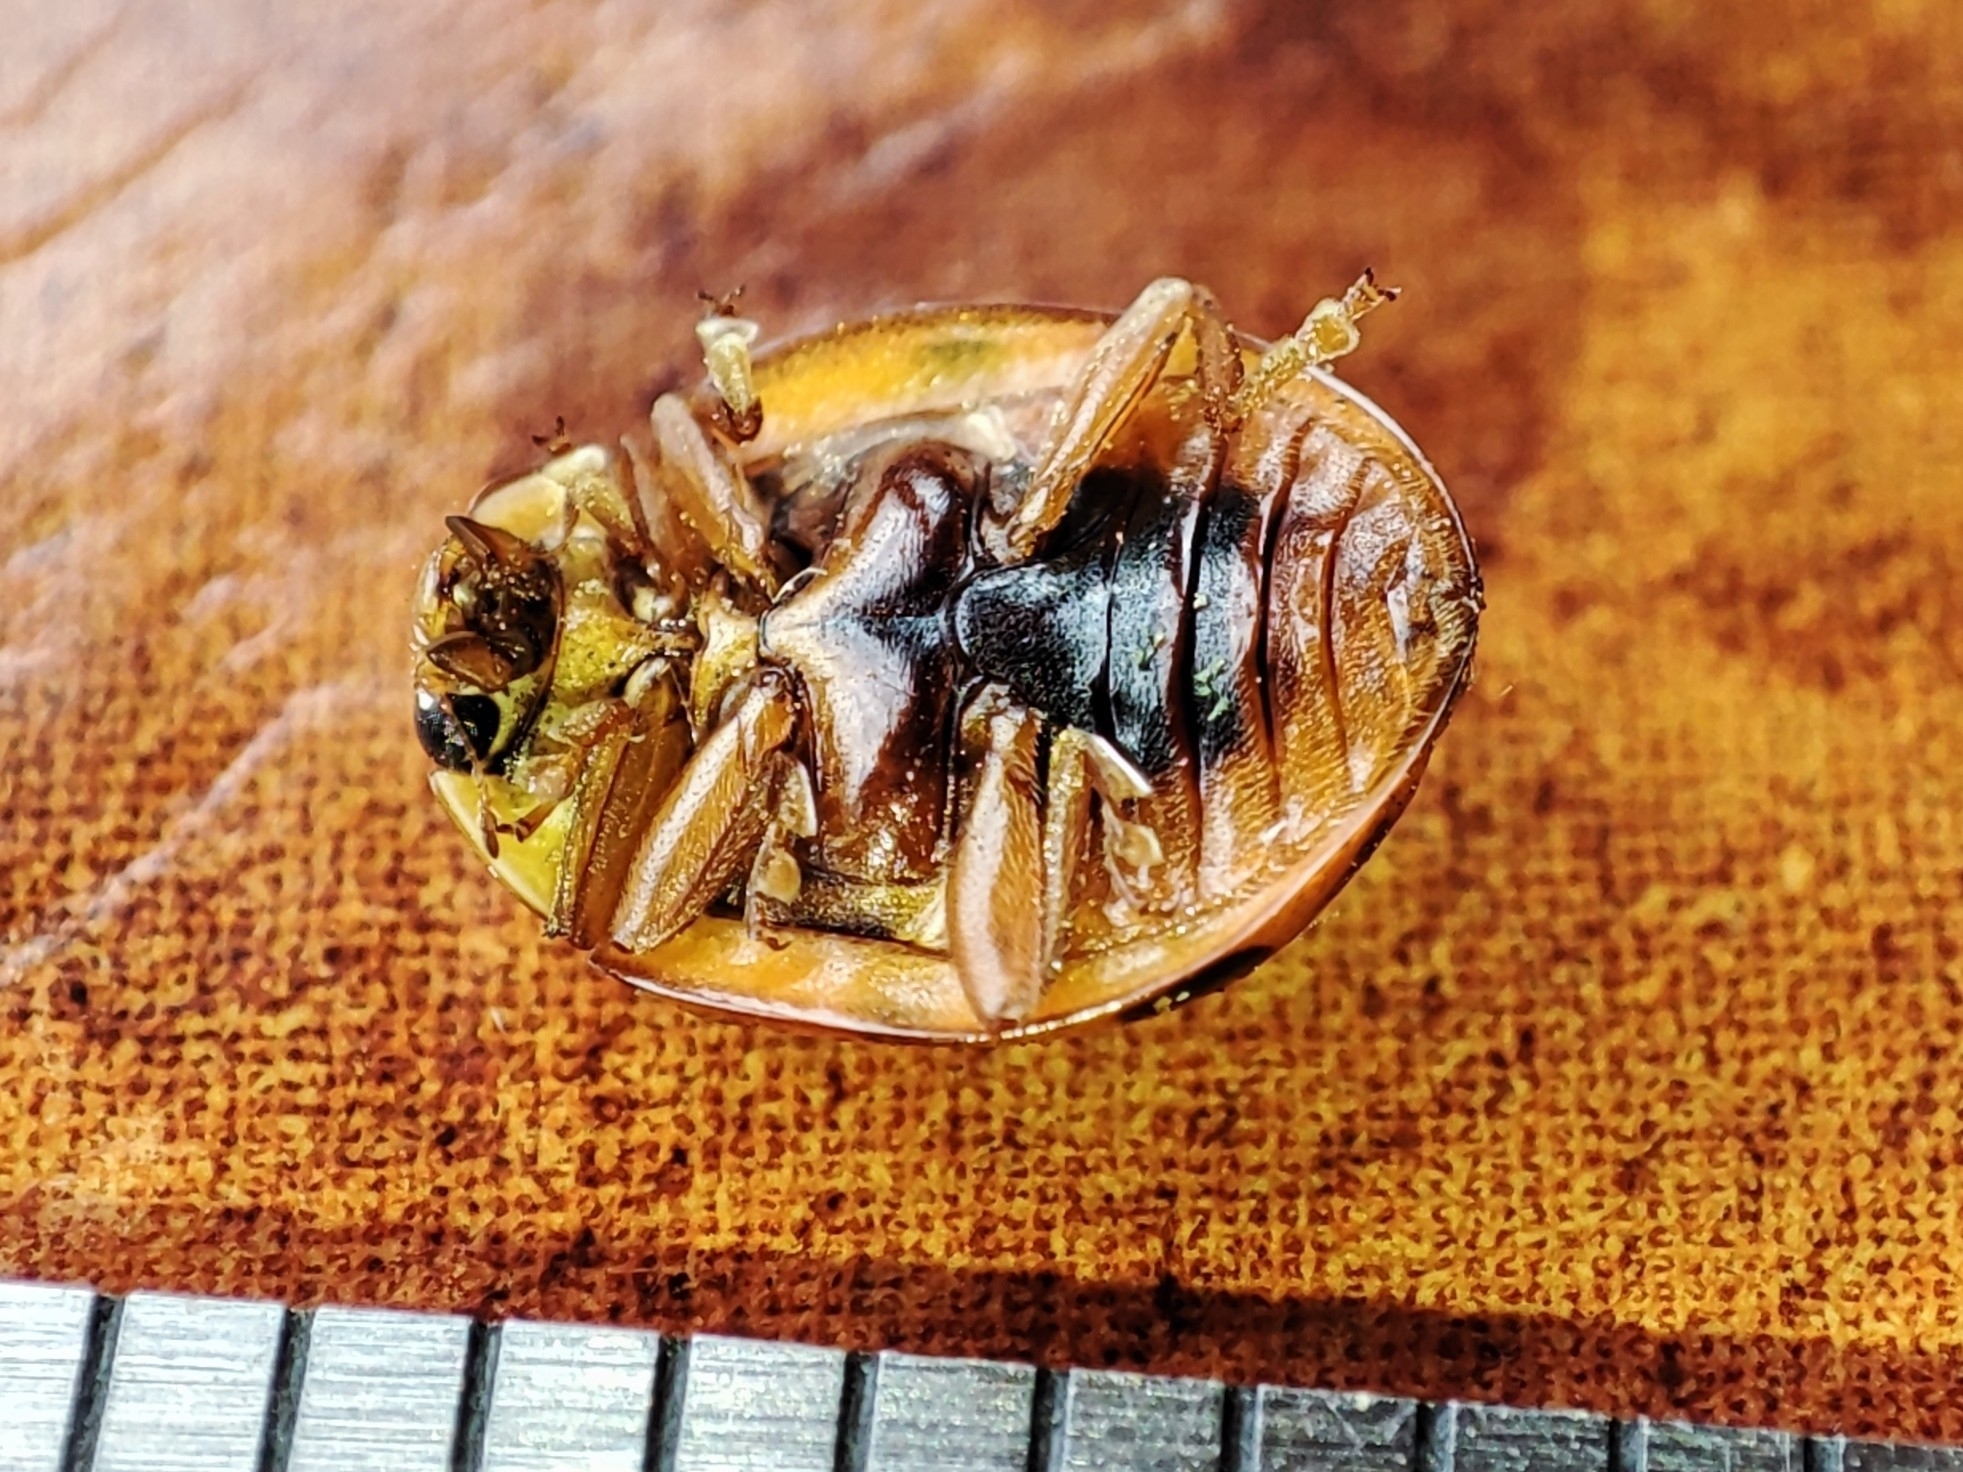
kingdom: Animalia
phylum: Arthropoda
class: Insecta
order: Coleoptera
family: Coccinellidae
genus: Harmonia
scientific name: Harmonia axyridis
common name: Harlequin ladybird
